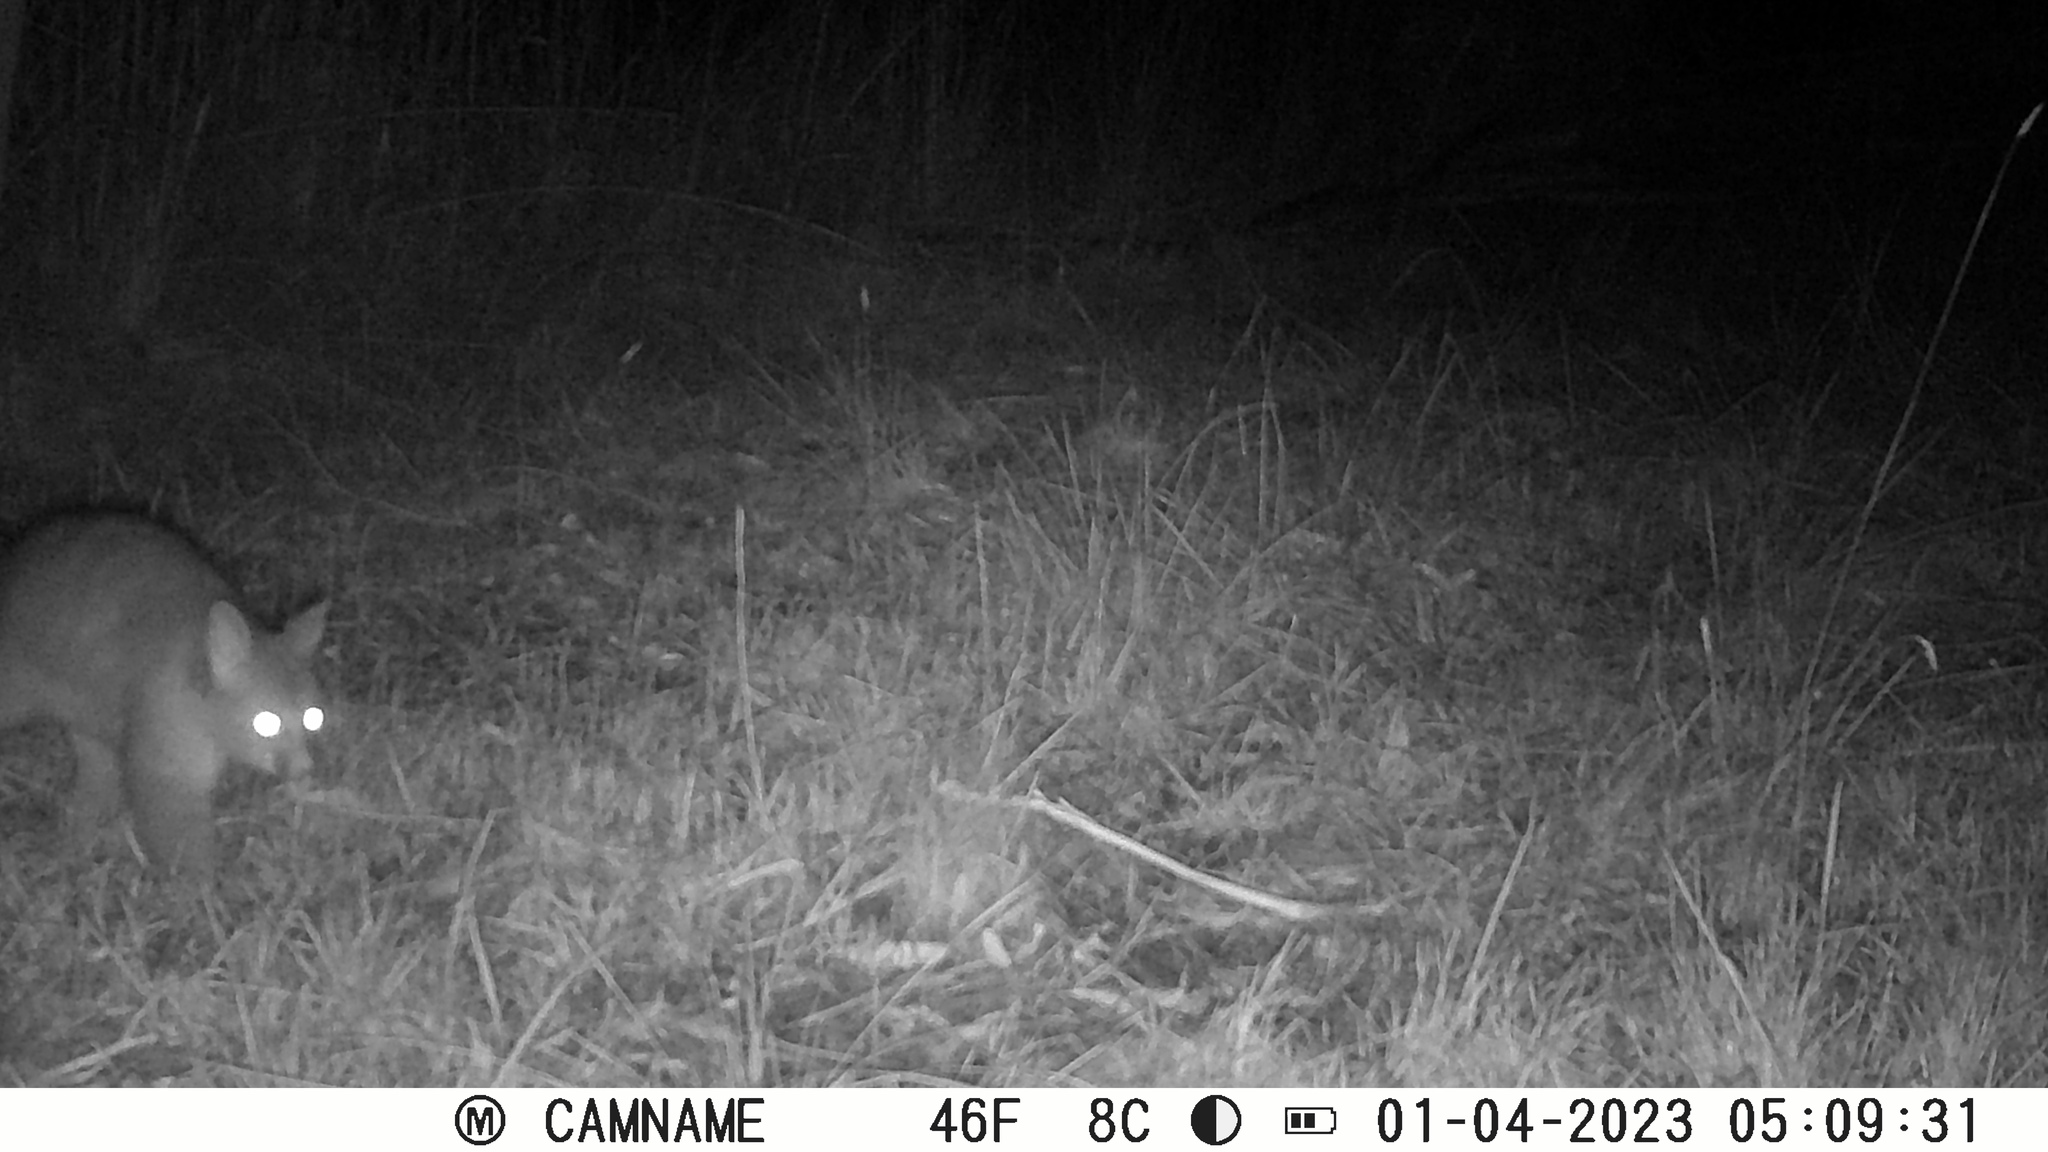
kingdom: Animalia
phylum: Chordata
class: Mammalia
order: Diprotodontia
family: Phalangeridae
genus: Trichosurus
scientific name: Trichosurus vulpecula
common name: Common brushtail
